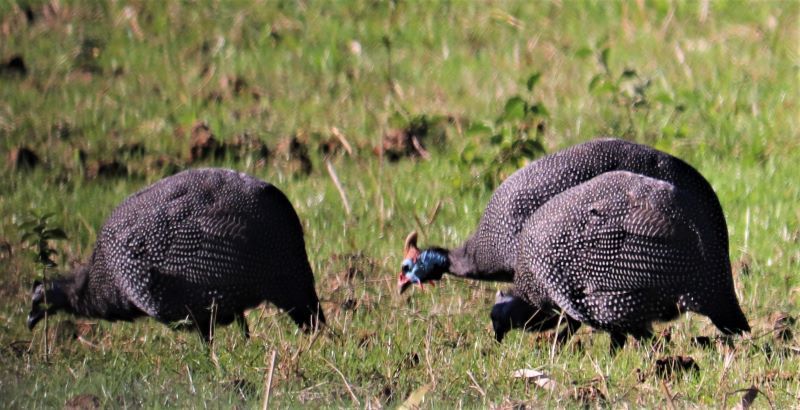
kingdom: Animalia
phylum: Chordata
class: Aves
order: Galliformes
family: Numididae
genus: Numida
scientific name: Numida meleagris
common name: Helmeted guineafowl
